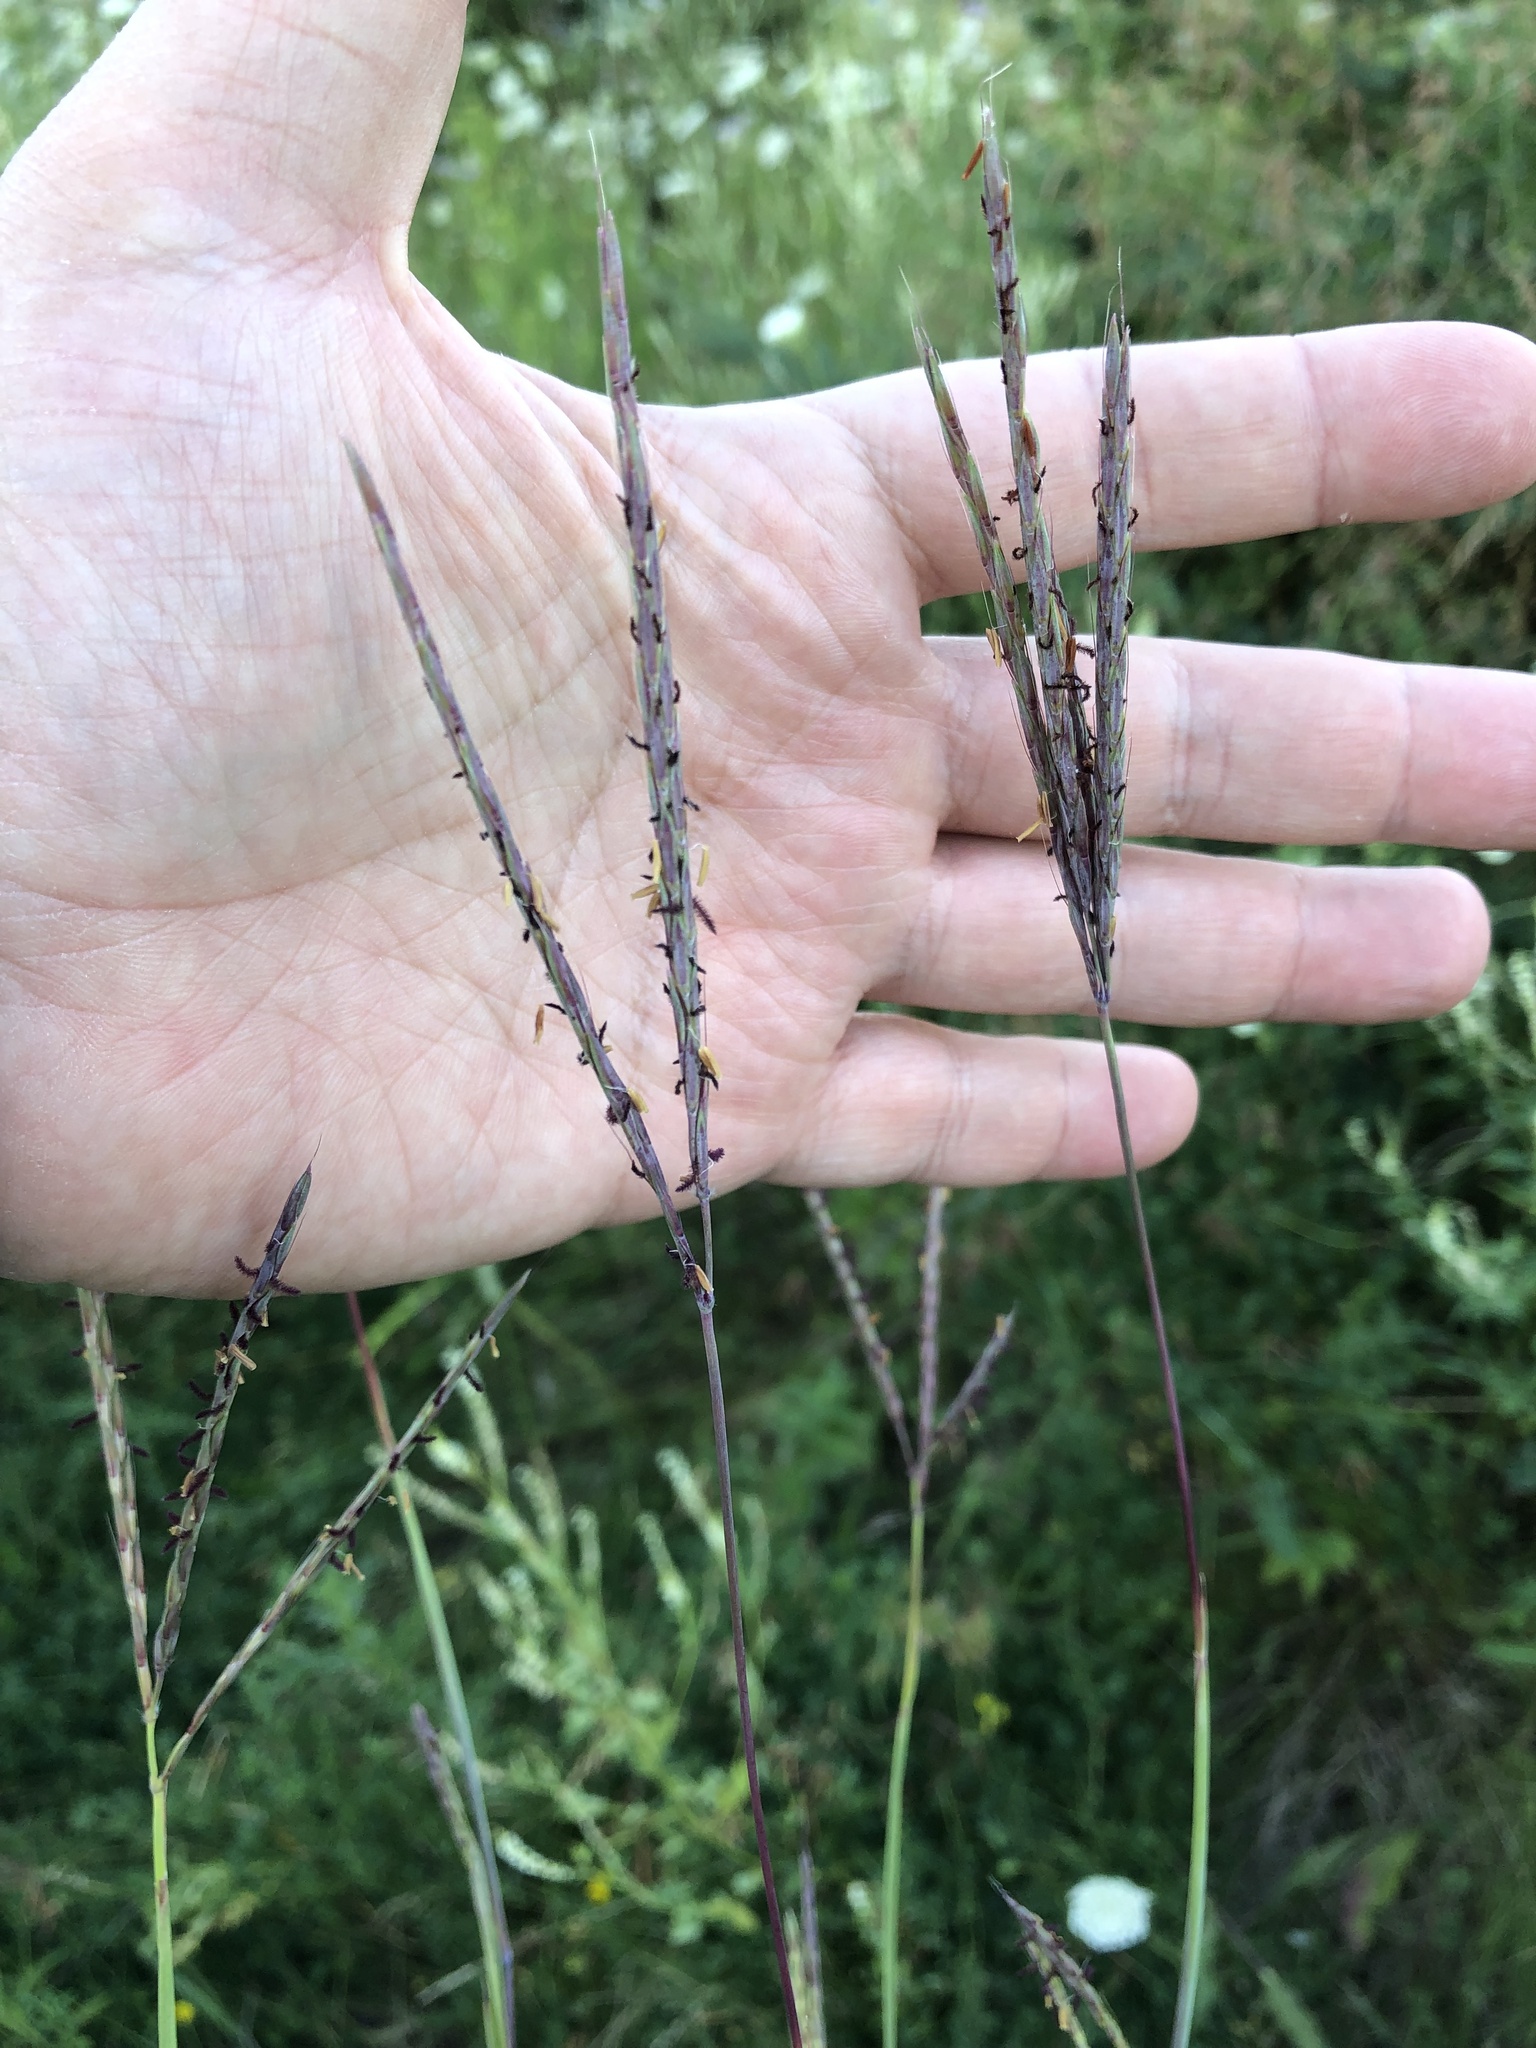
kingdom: Plantae
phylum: Tracheophyta
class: Liliopsida
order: Poales
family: Poaceae
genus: Andropogon
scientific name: Andropogon gerardi
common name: Big bluestem
